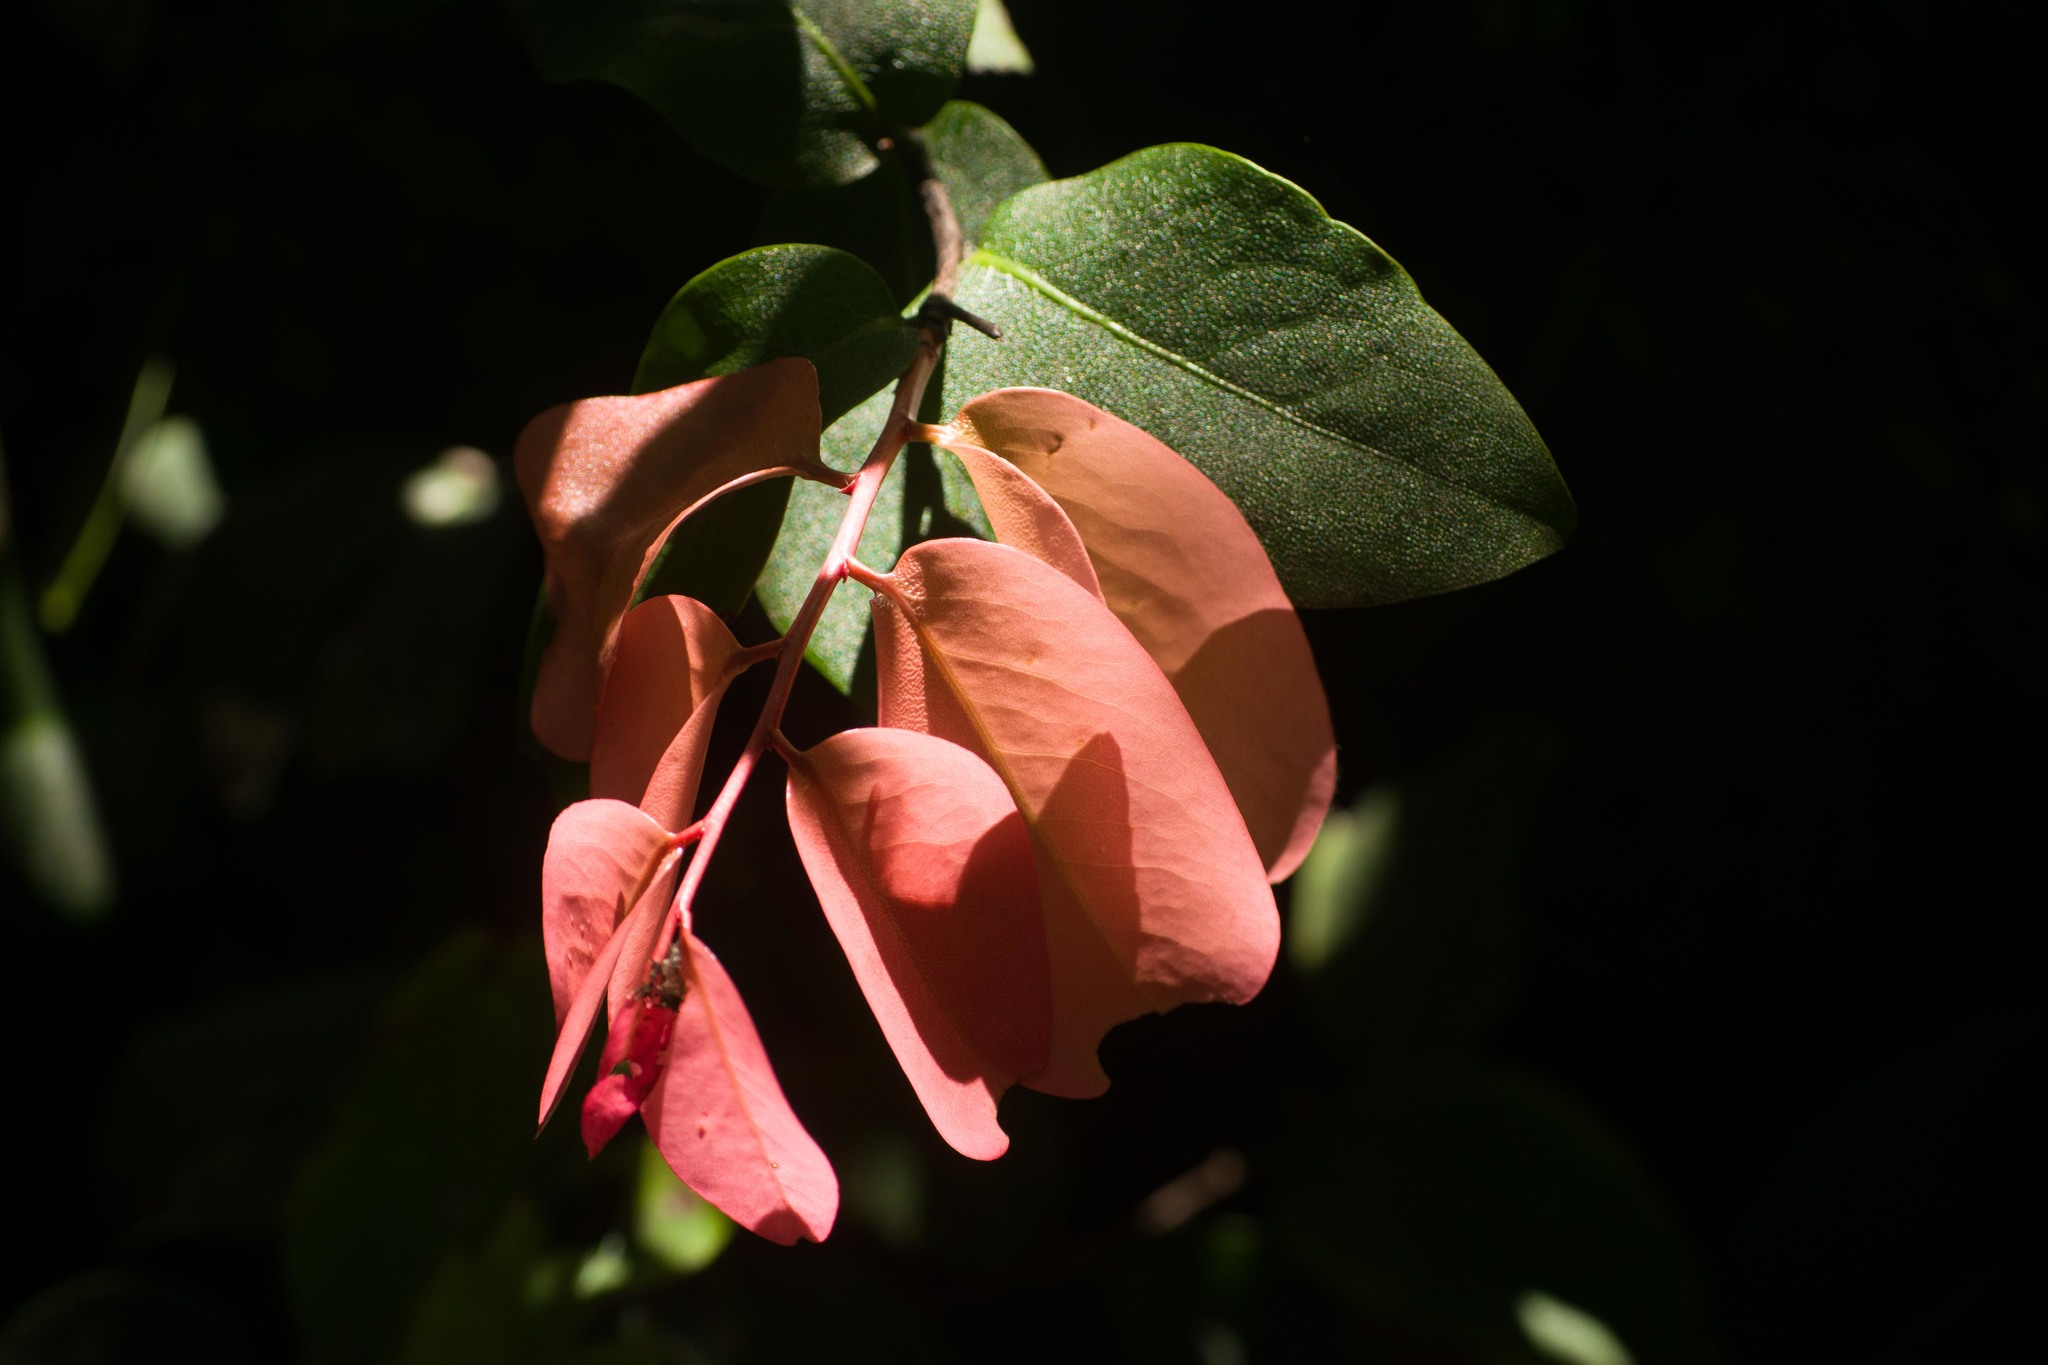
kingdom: Plantae
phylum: Tracheophyta
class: Magnoliopsida
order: Ericales
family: Ebenaceae
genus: Diospyros
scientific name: Diospyros hillebrandii
